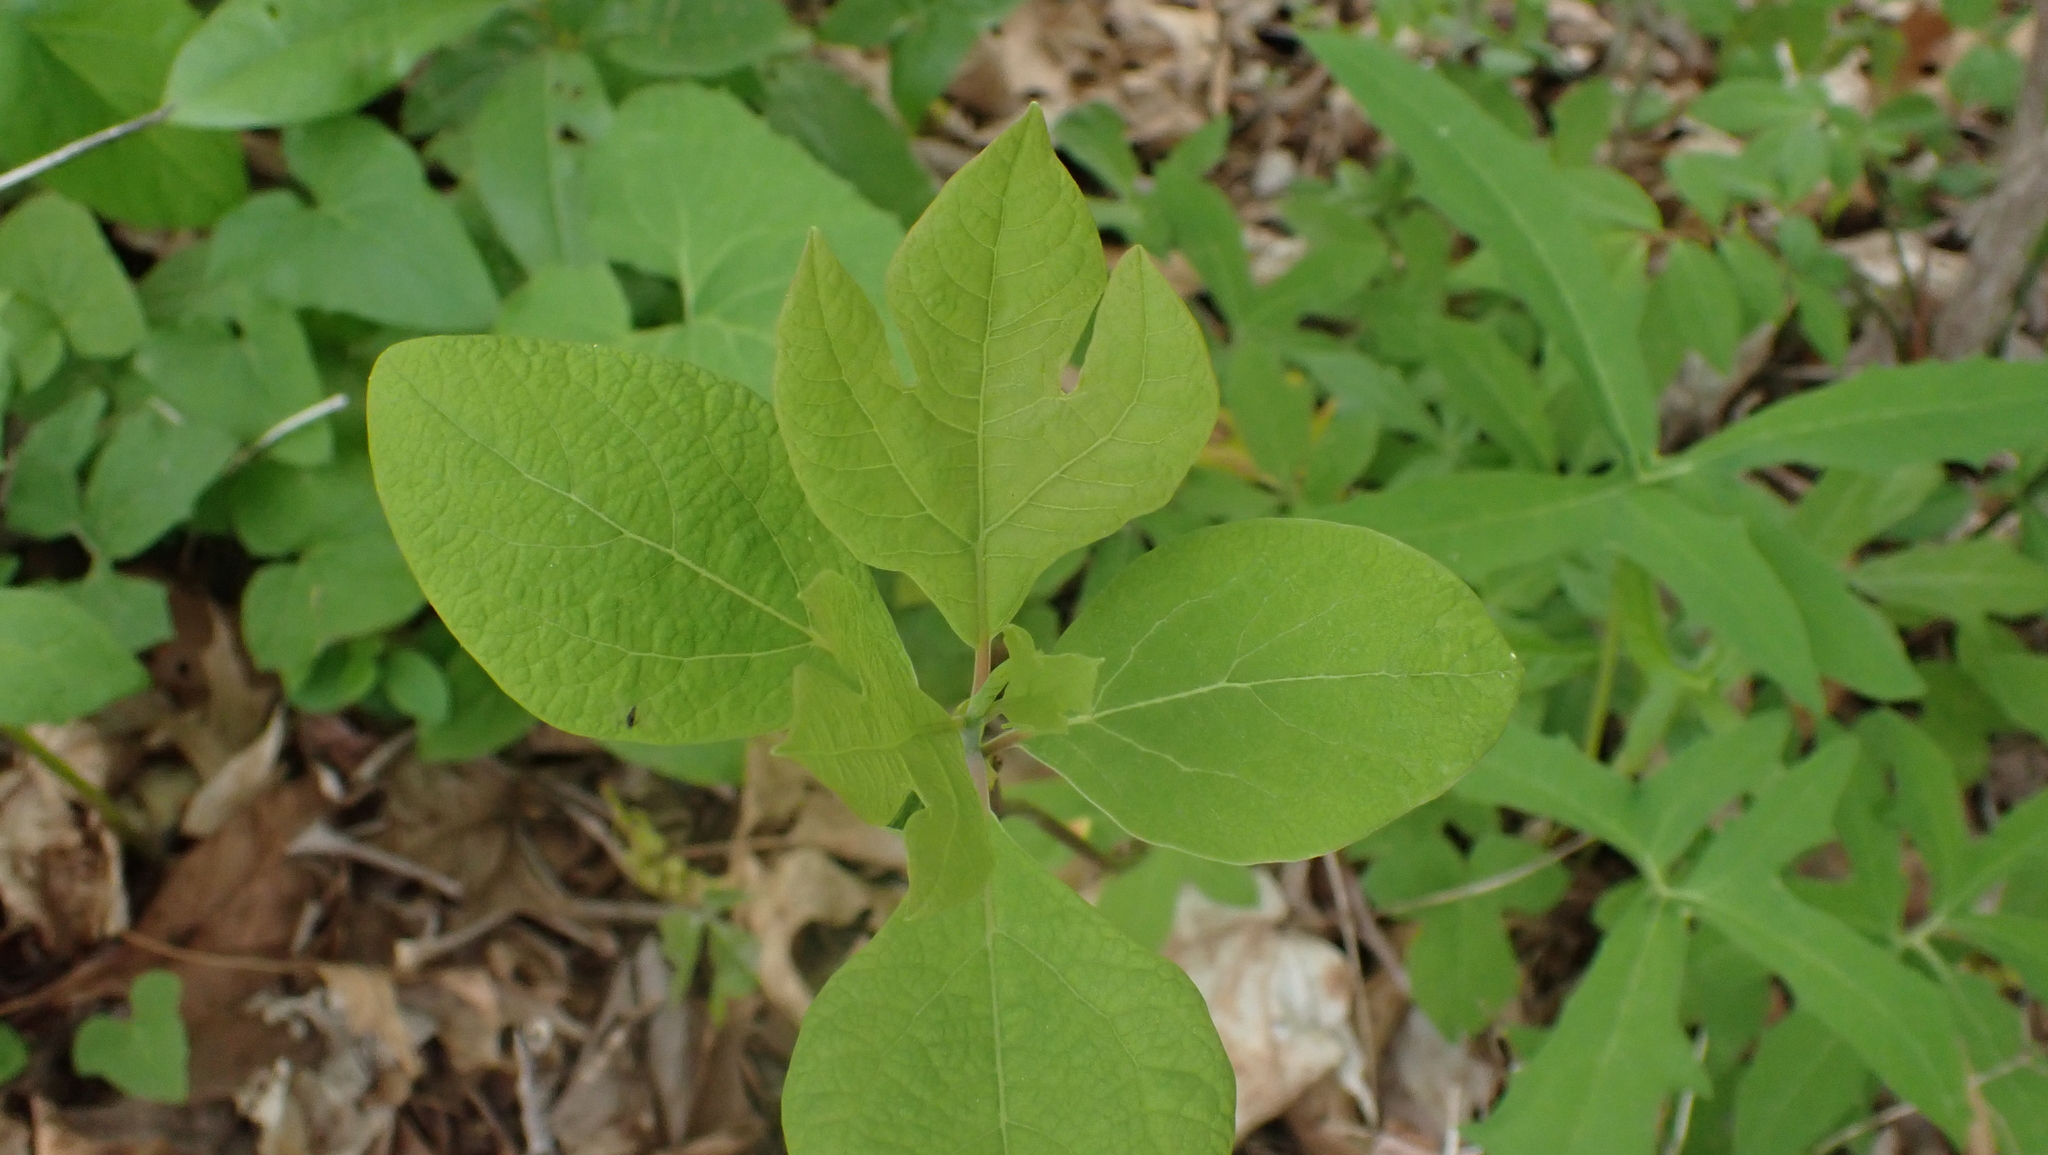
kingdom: Plantae
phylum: Tracheophyta
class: Magnoliopsida
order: Laurales
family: Lauraceae
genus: Sassafras
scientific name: Sassafras albidum
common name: Sassafras
